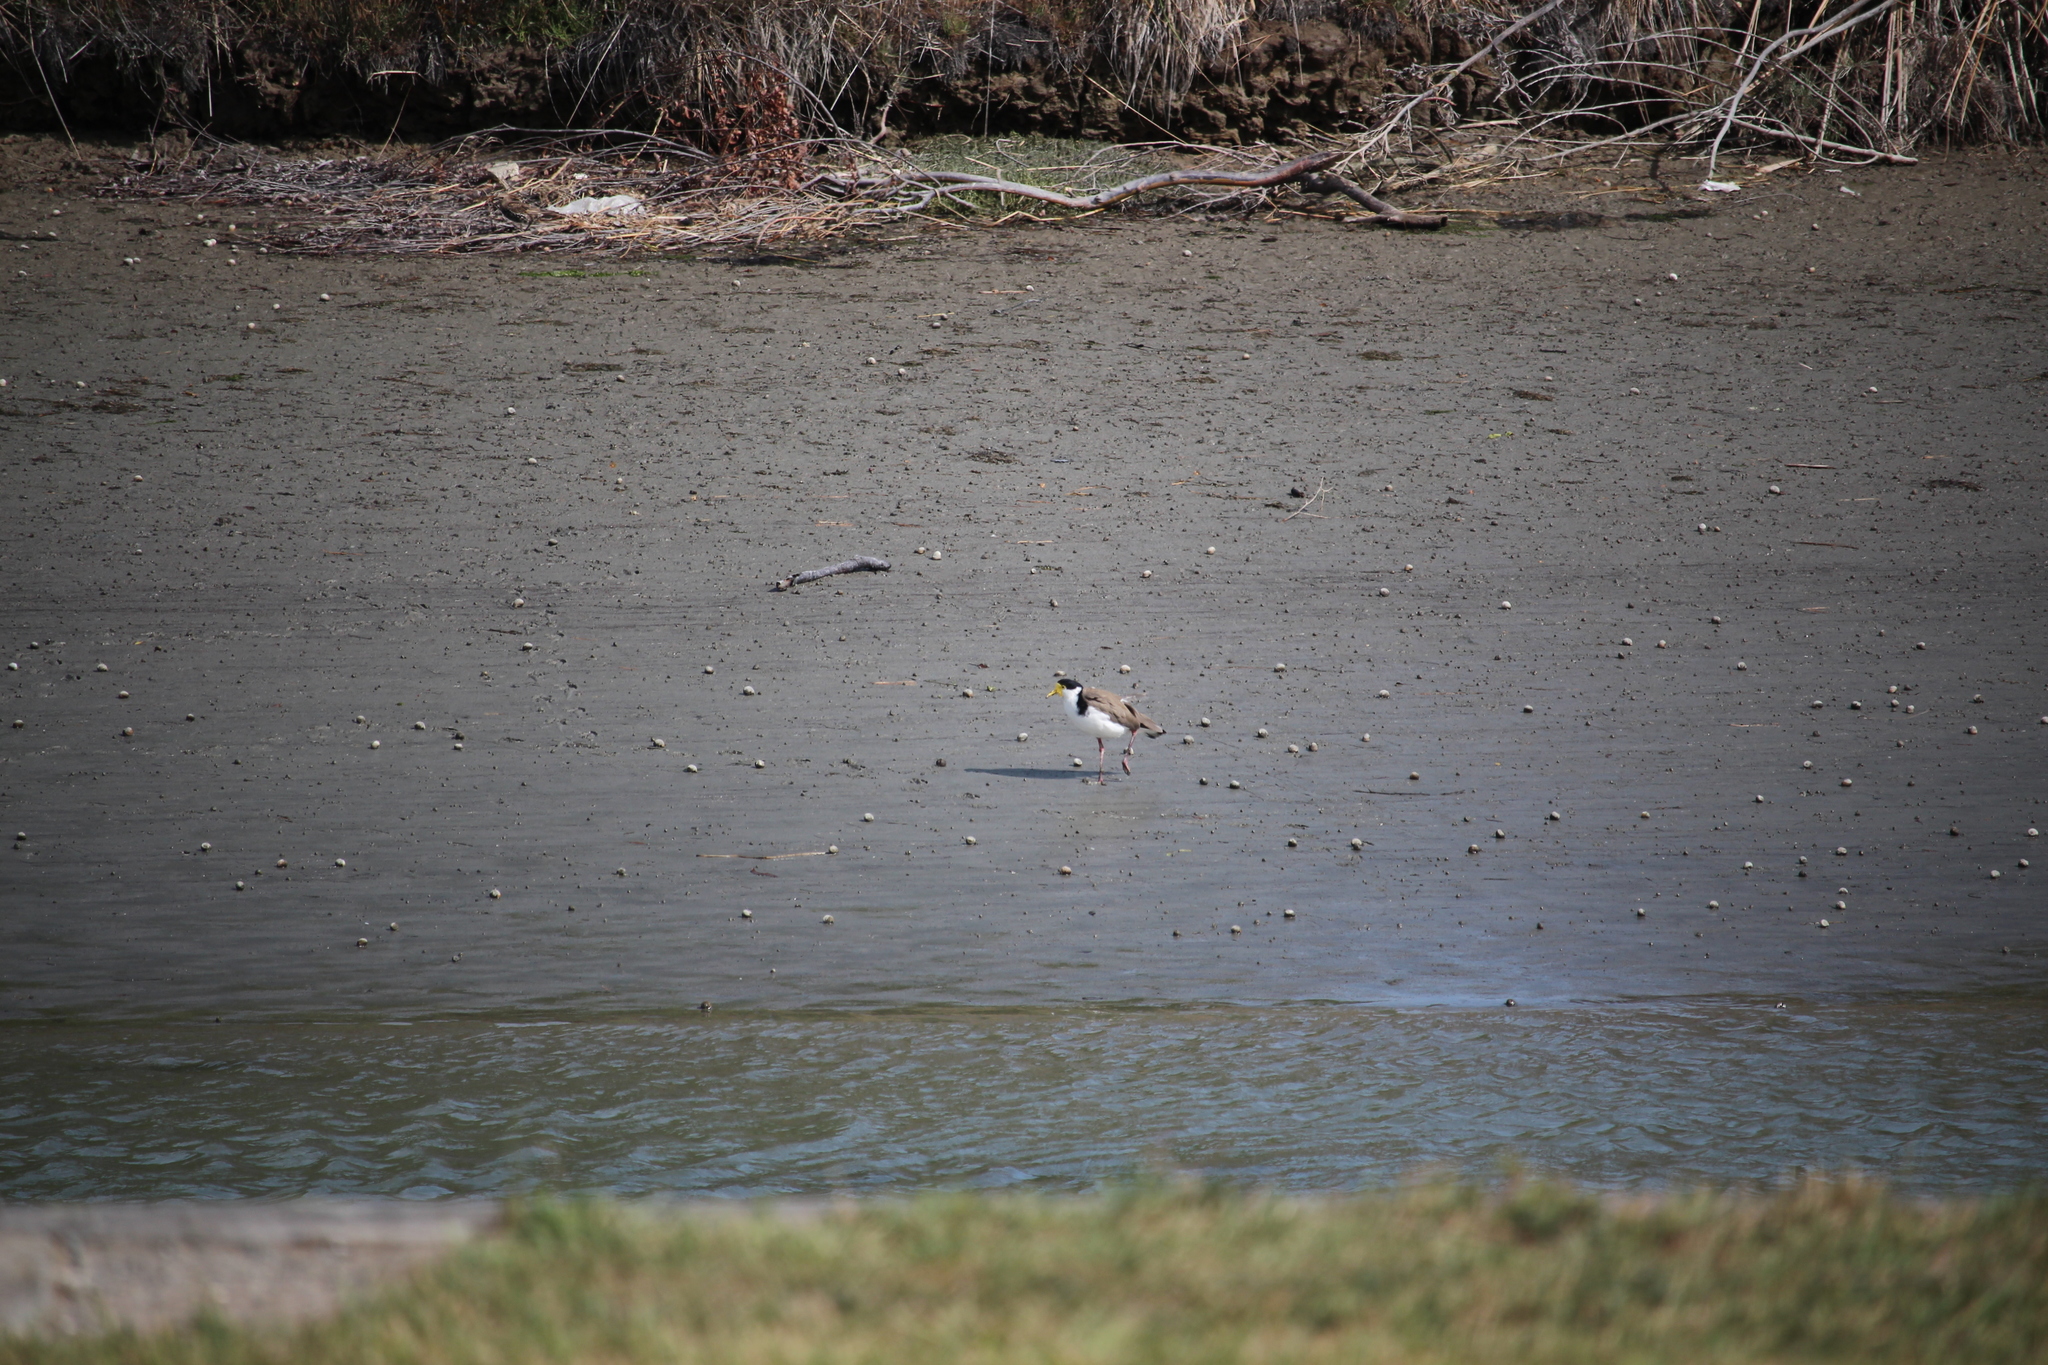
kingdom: Animalia
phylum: Chordata
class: Aves
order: Charadriiformes
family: Charadriidae
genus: Vanellus
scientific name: Vanellus miles
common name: Masked lapwing
